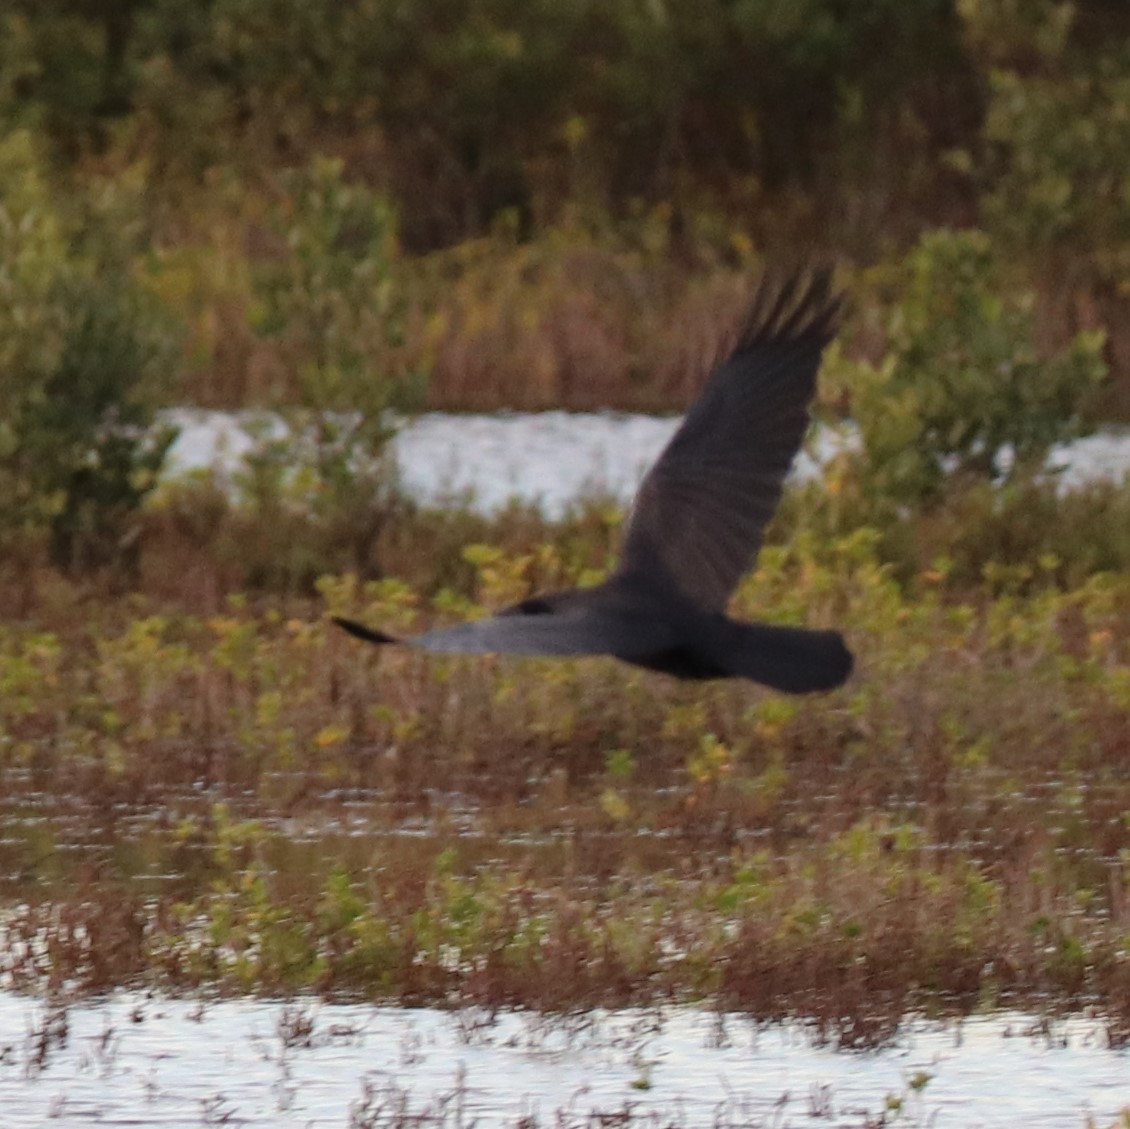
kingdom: Animalia
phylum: Chordata
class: Aves
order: Passeriformes
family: Corvidae
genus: Corvus
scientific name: Corvus ossifragus
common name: Fish crow
